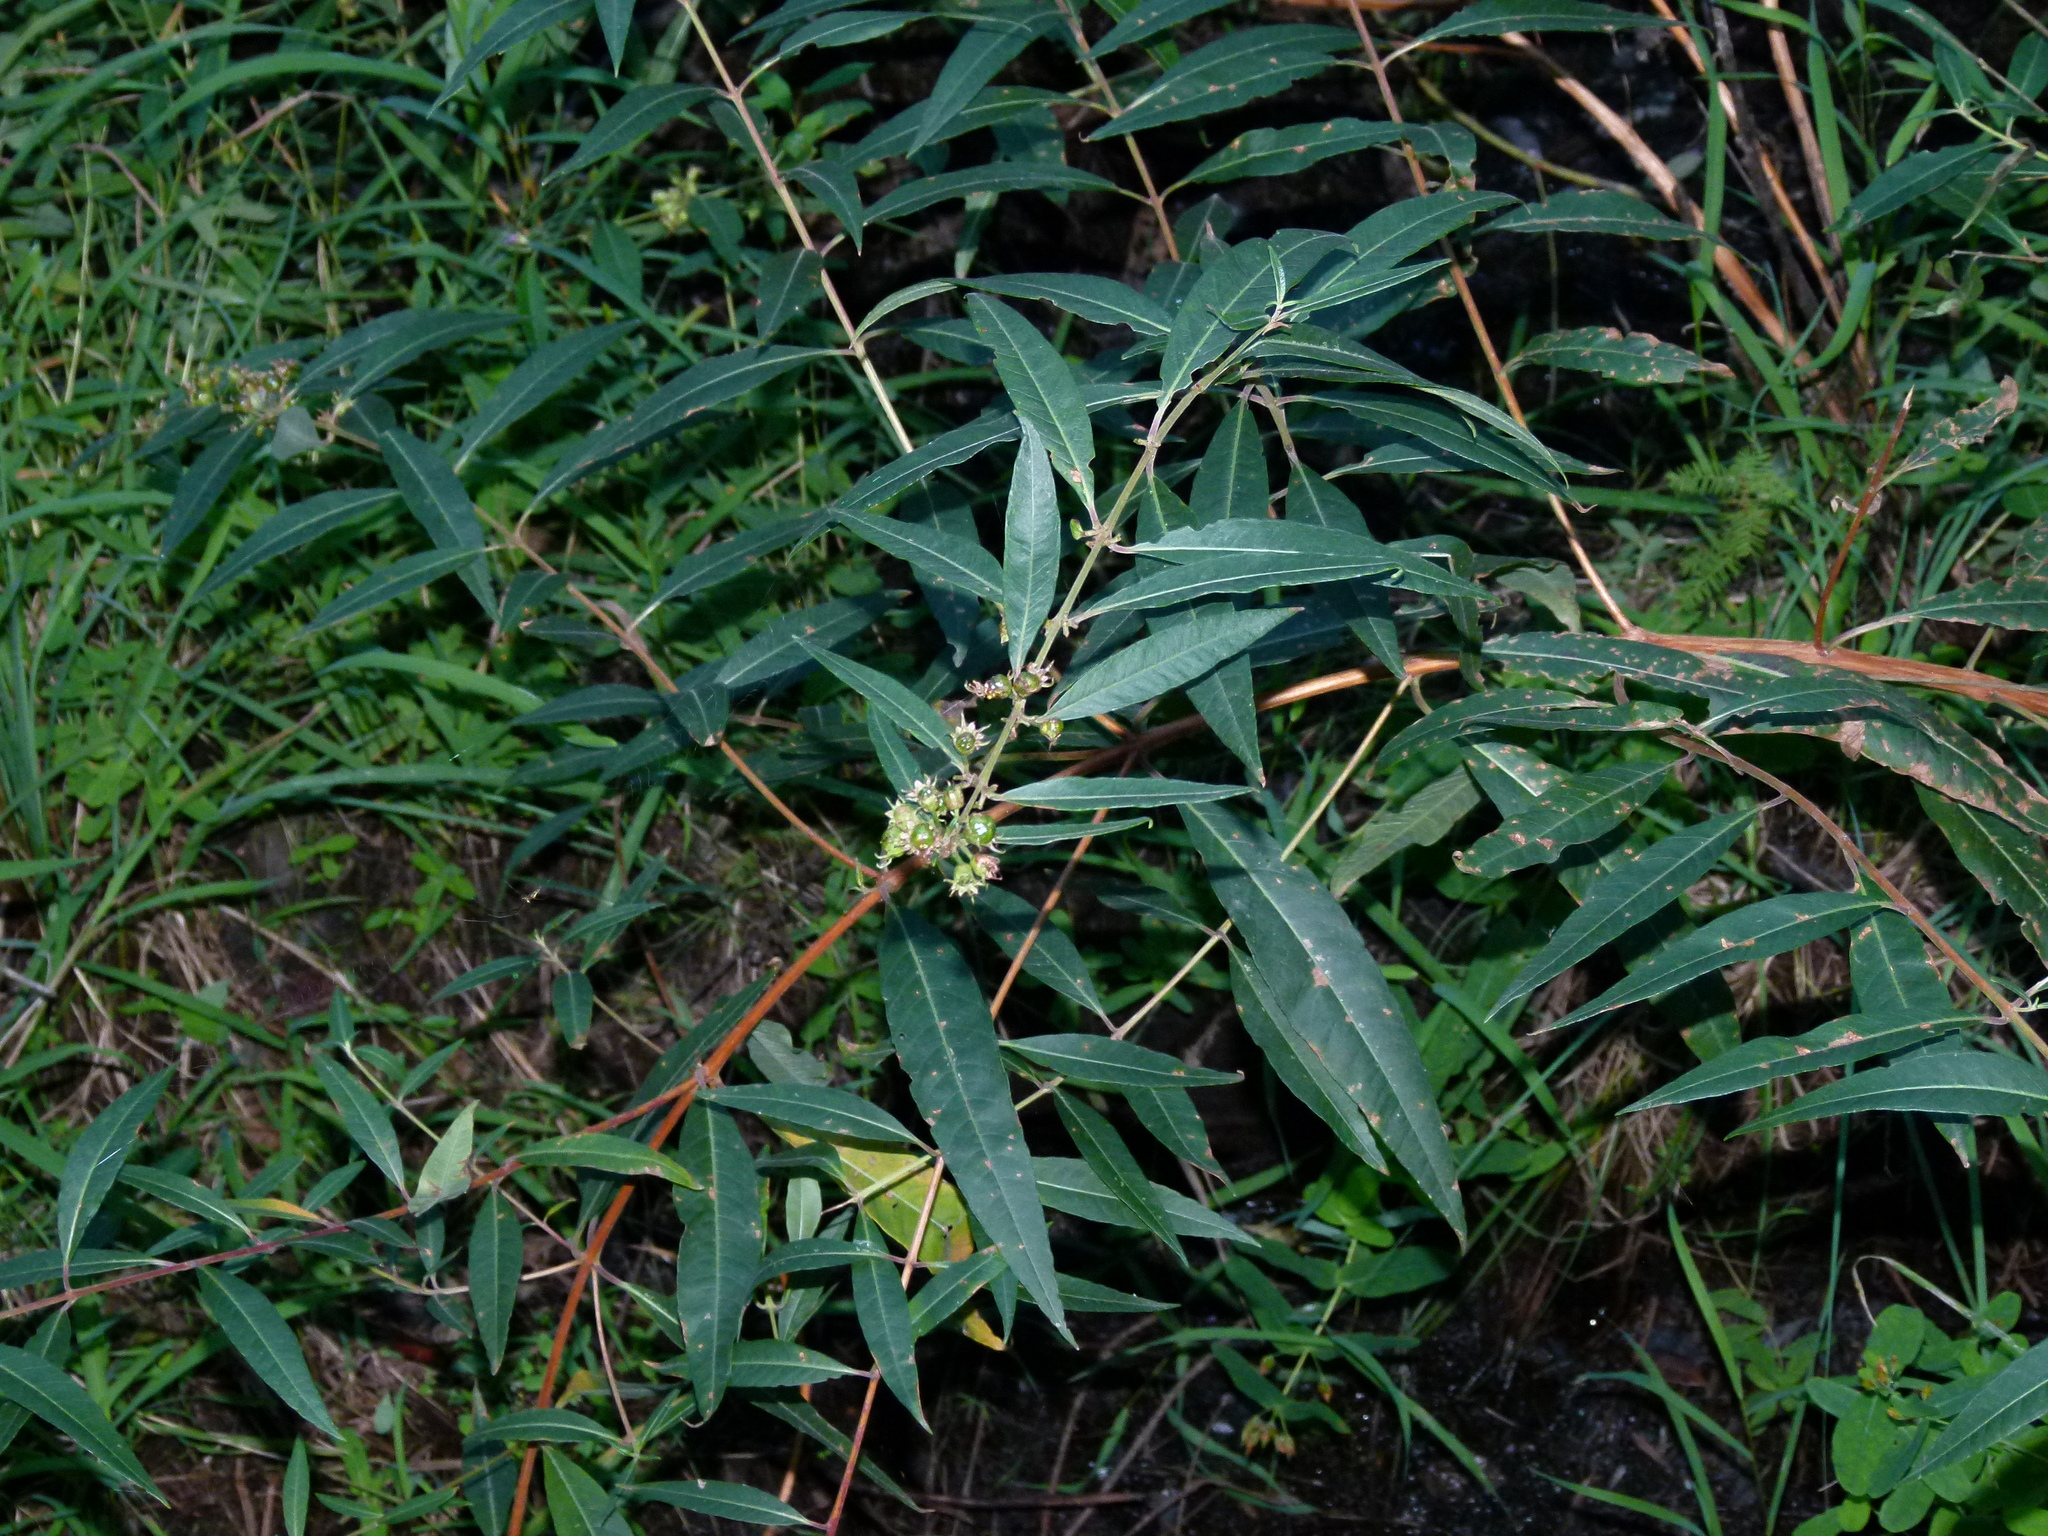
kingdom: Plantae
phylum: Tracheophyta
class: Magnoliopsida
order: Myrtales
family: Lythraceae
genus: Decodon
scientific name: Decodon verticillatus
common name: Hairy swamp loosestrife
